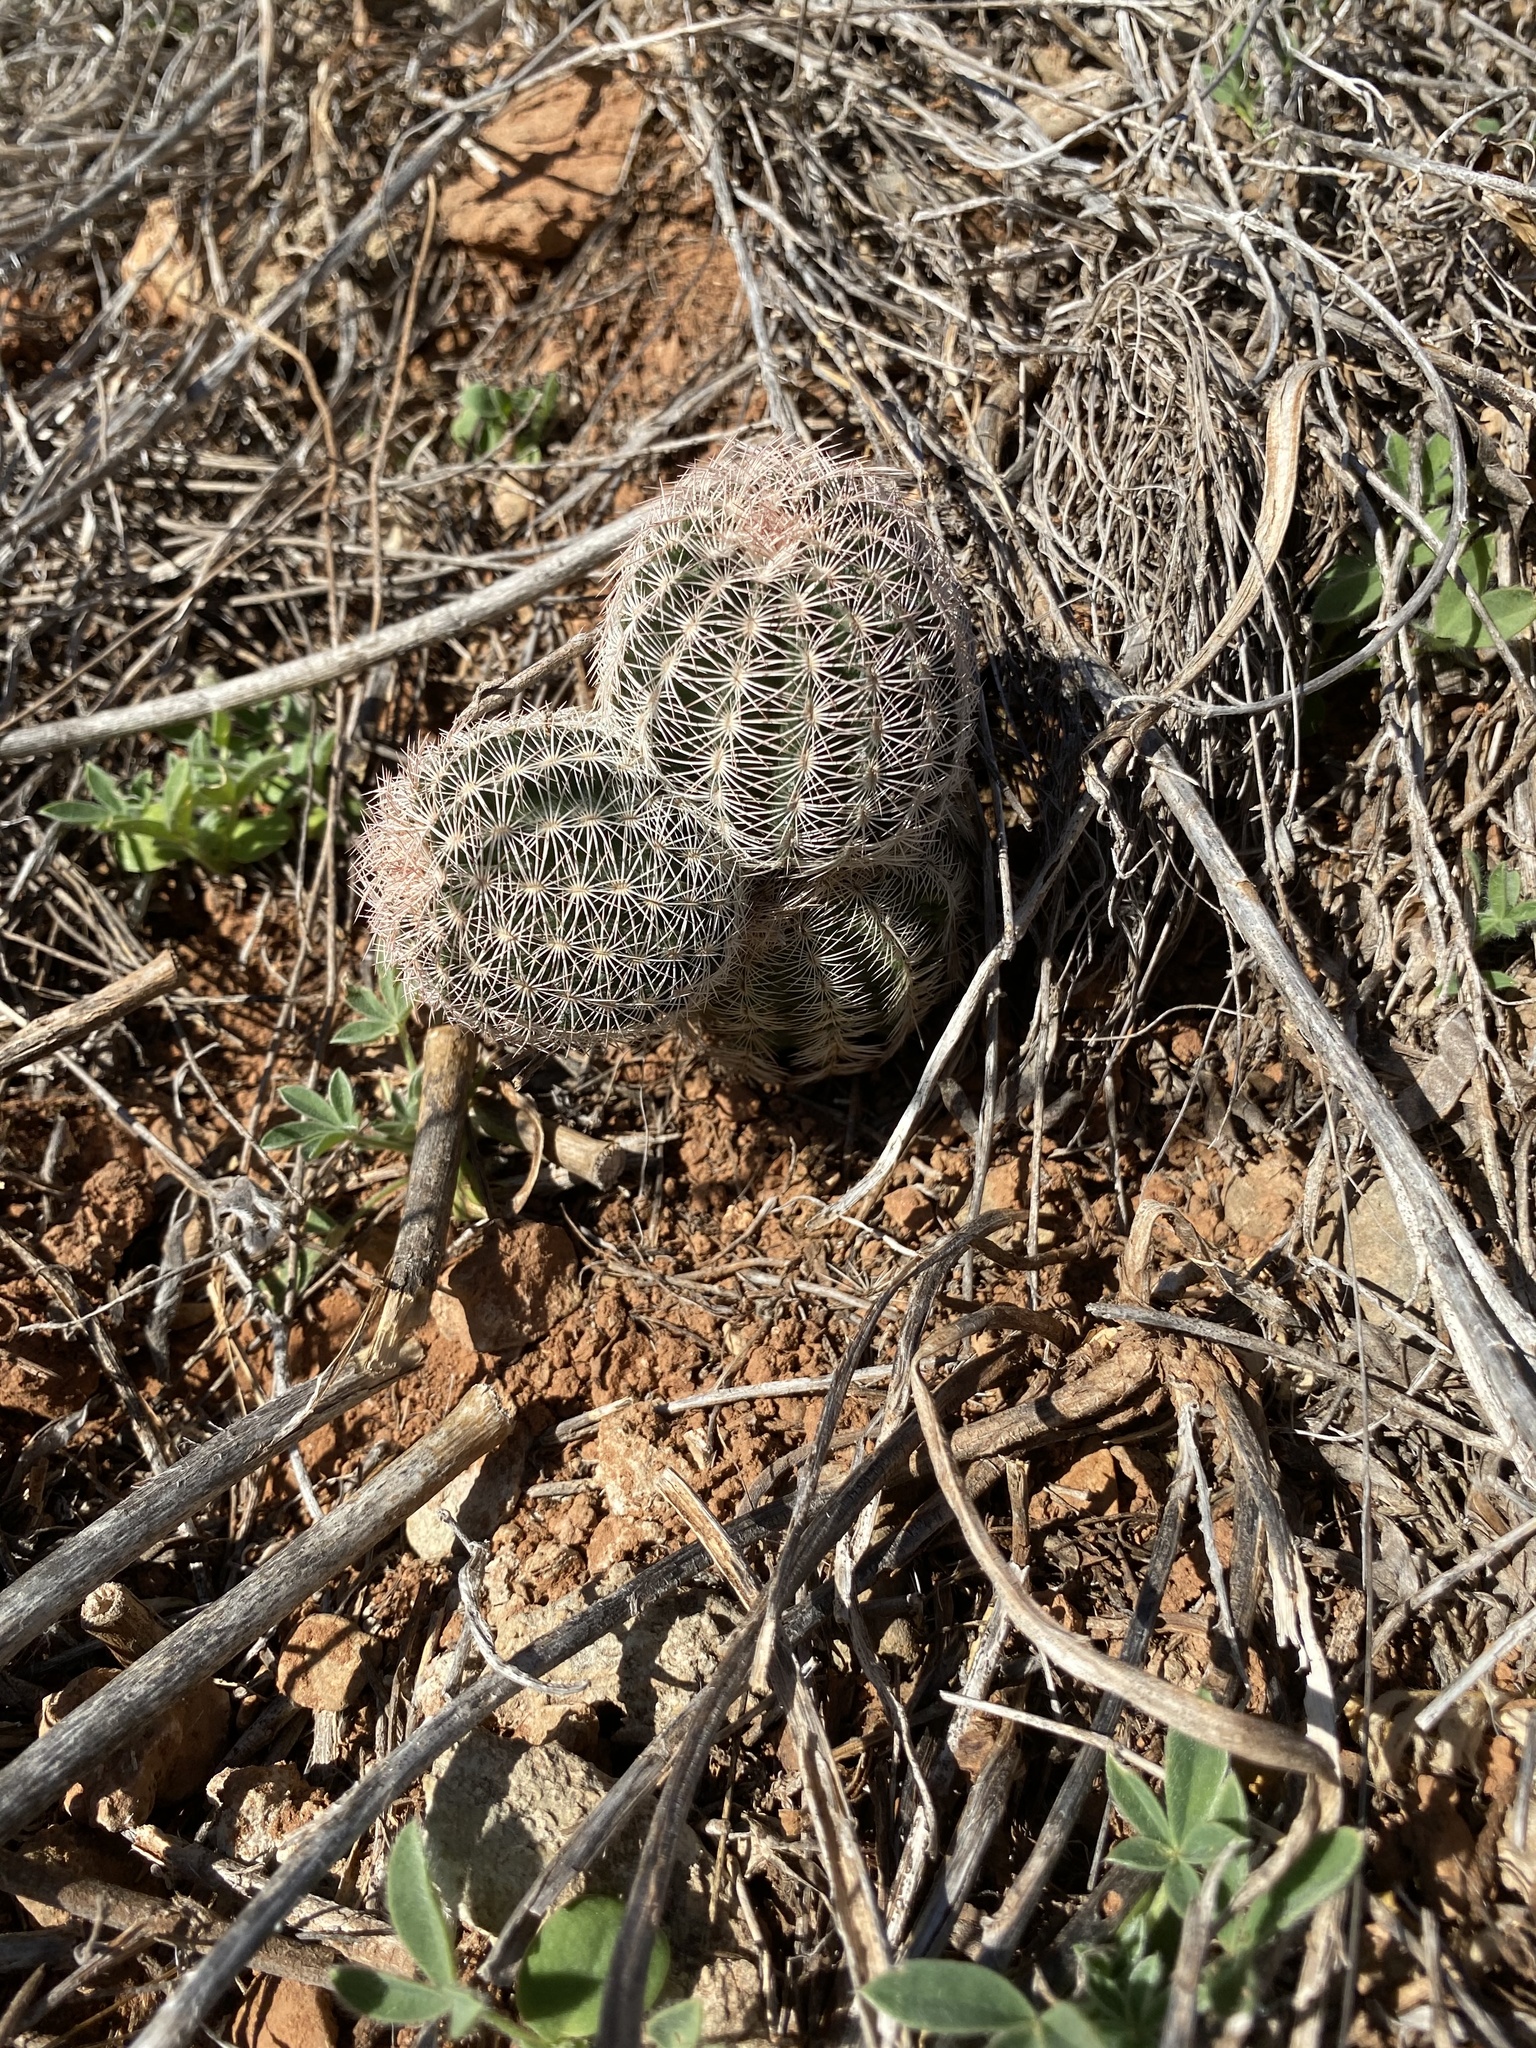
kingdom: Plantae
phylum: Tracheophyta
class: Magnoliopsida
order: Caryophyllales
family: Cactaceae
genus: Echinocereus
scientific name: Echinocereus reichenbachii
